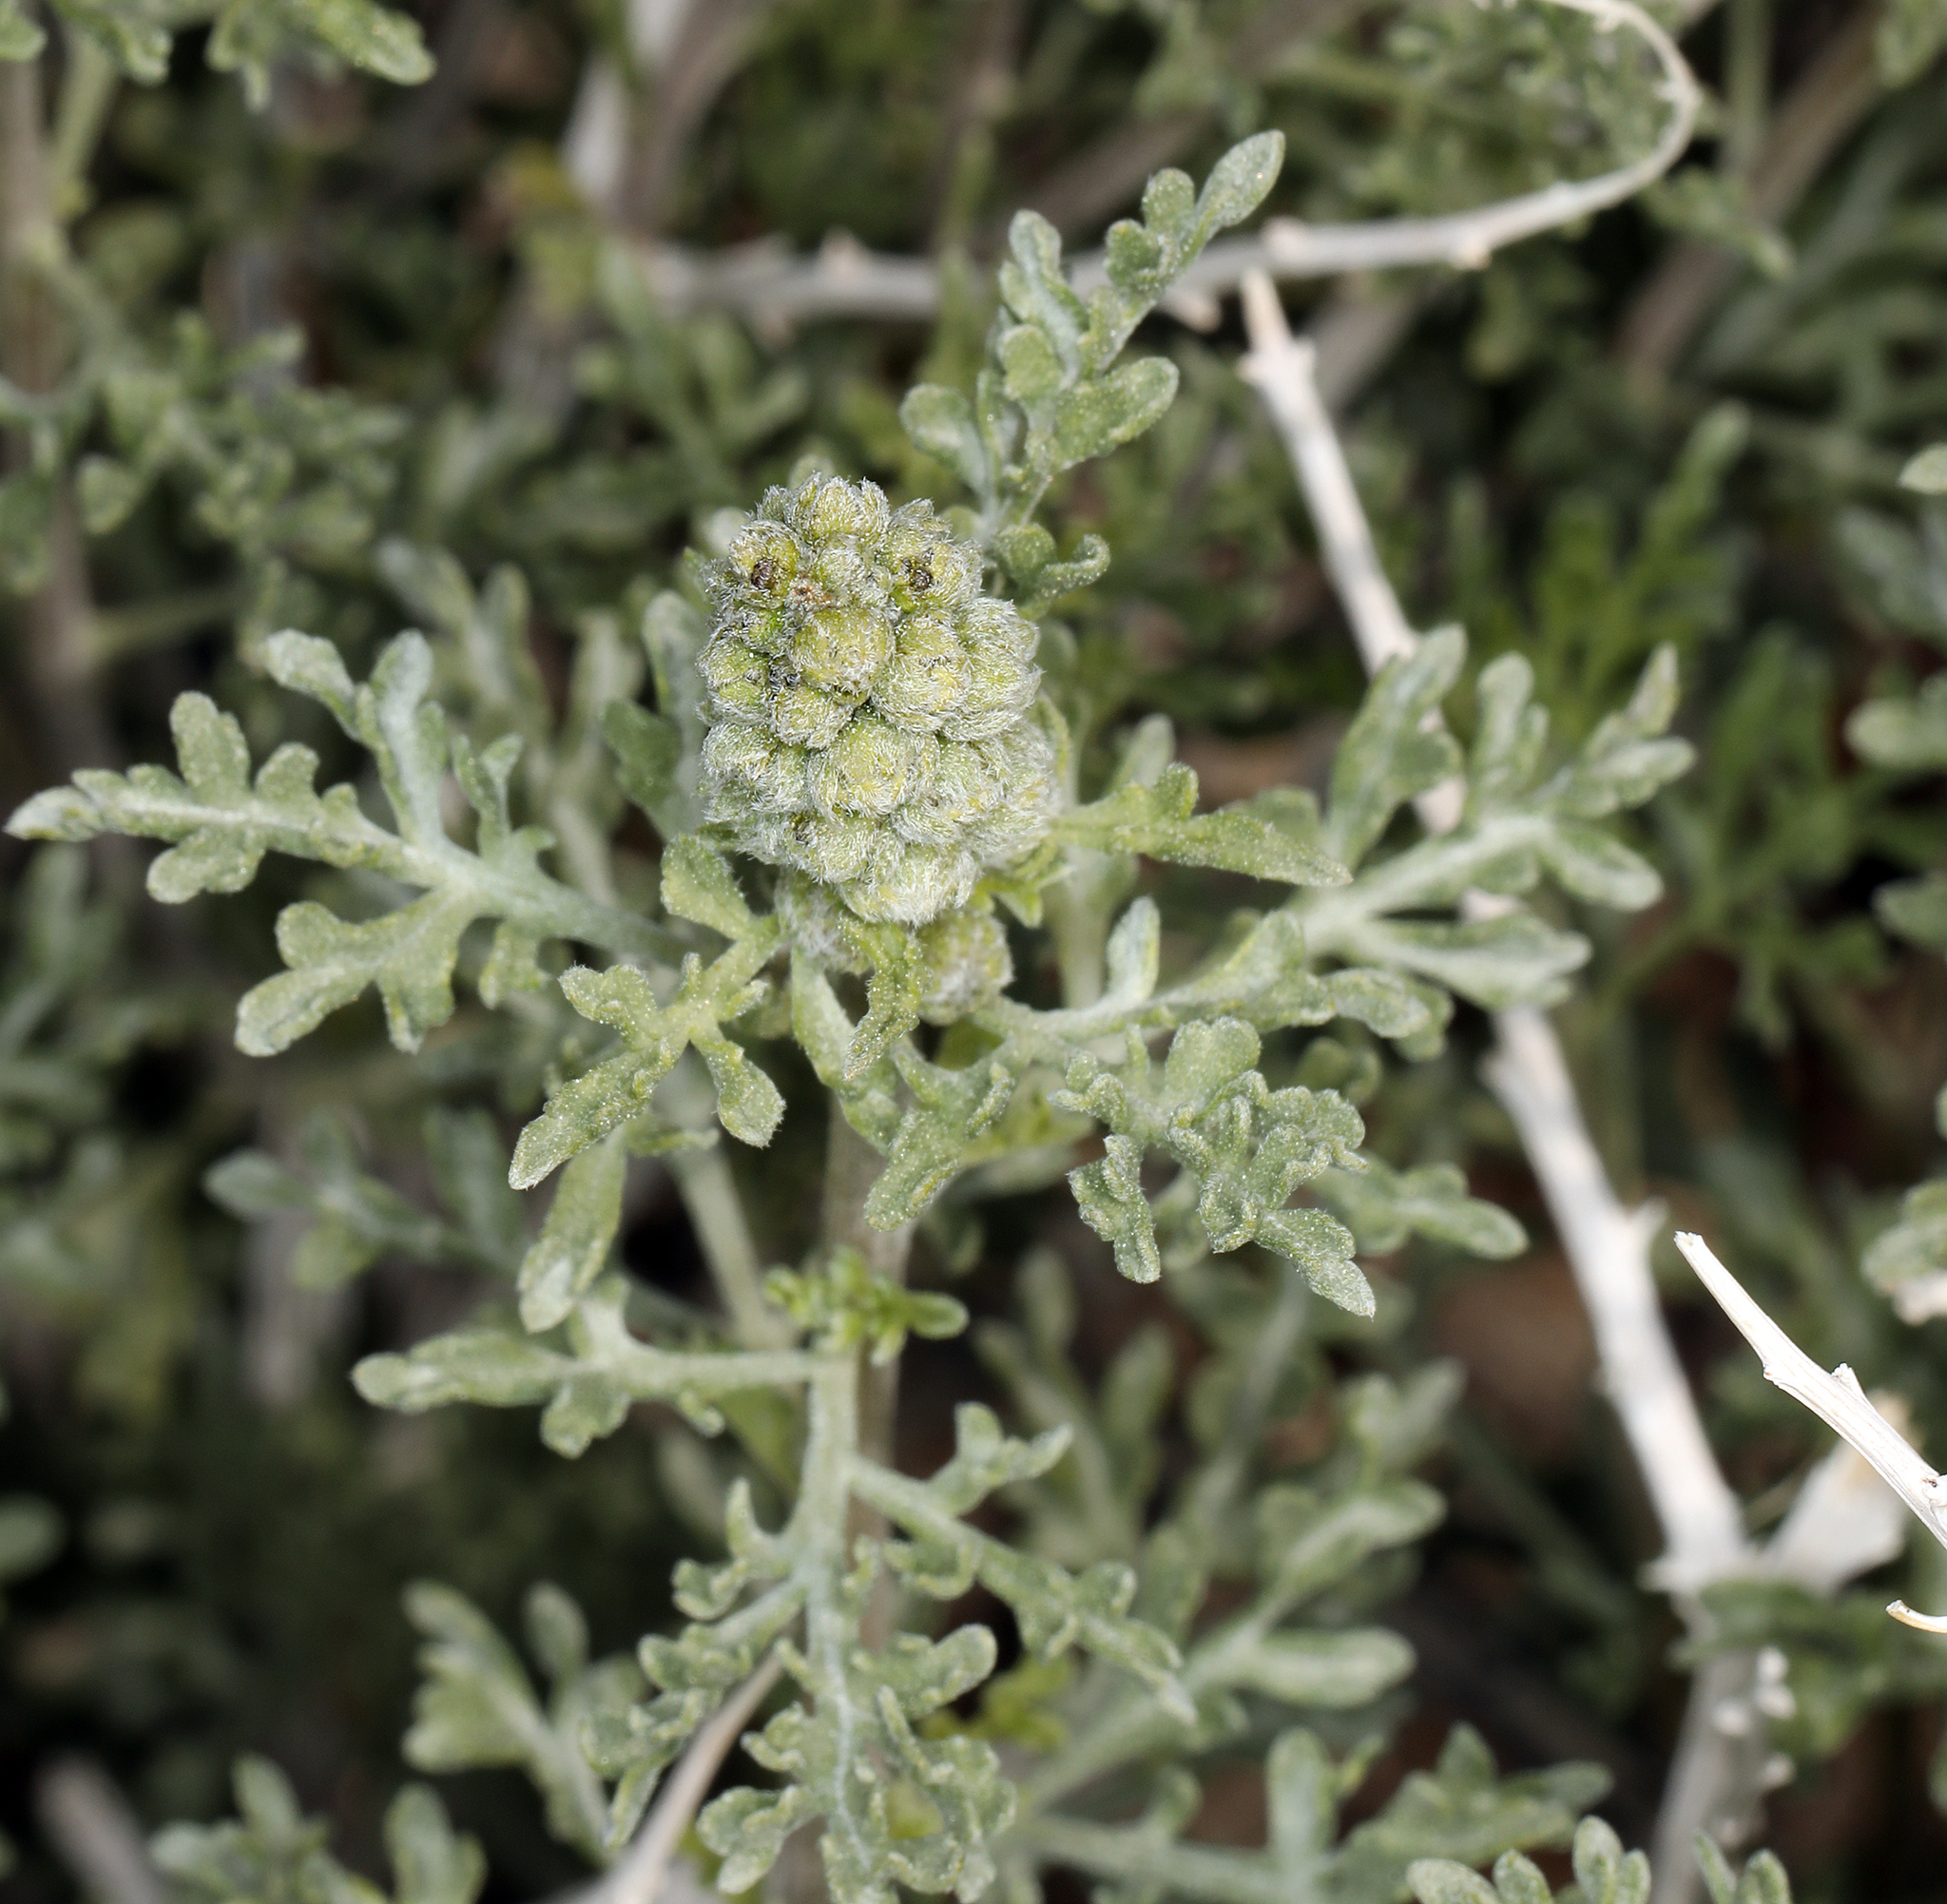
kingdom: Plantae
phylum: Tracheophyta
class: Magnoliopsida
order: Asterales
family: Asteraceae
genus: Ambrosia
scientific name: Ambrosia dumosa
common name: Bur-sage
